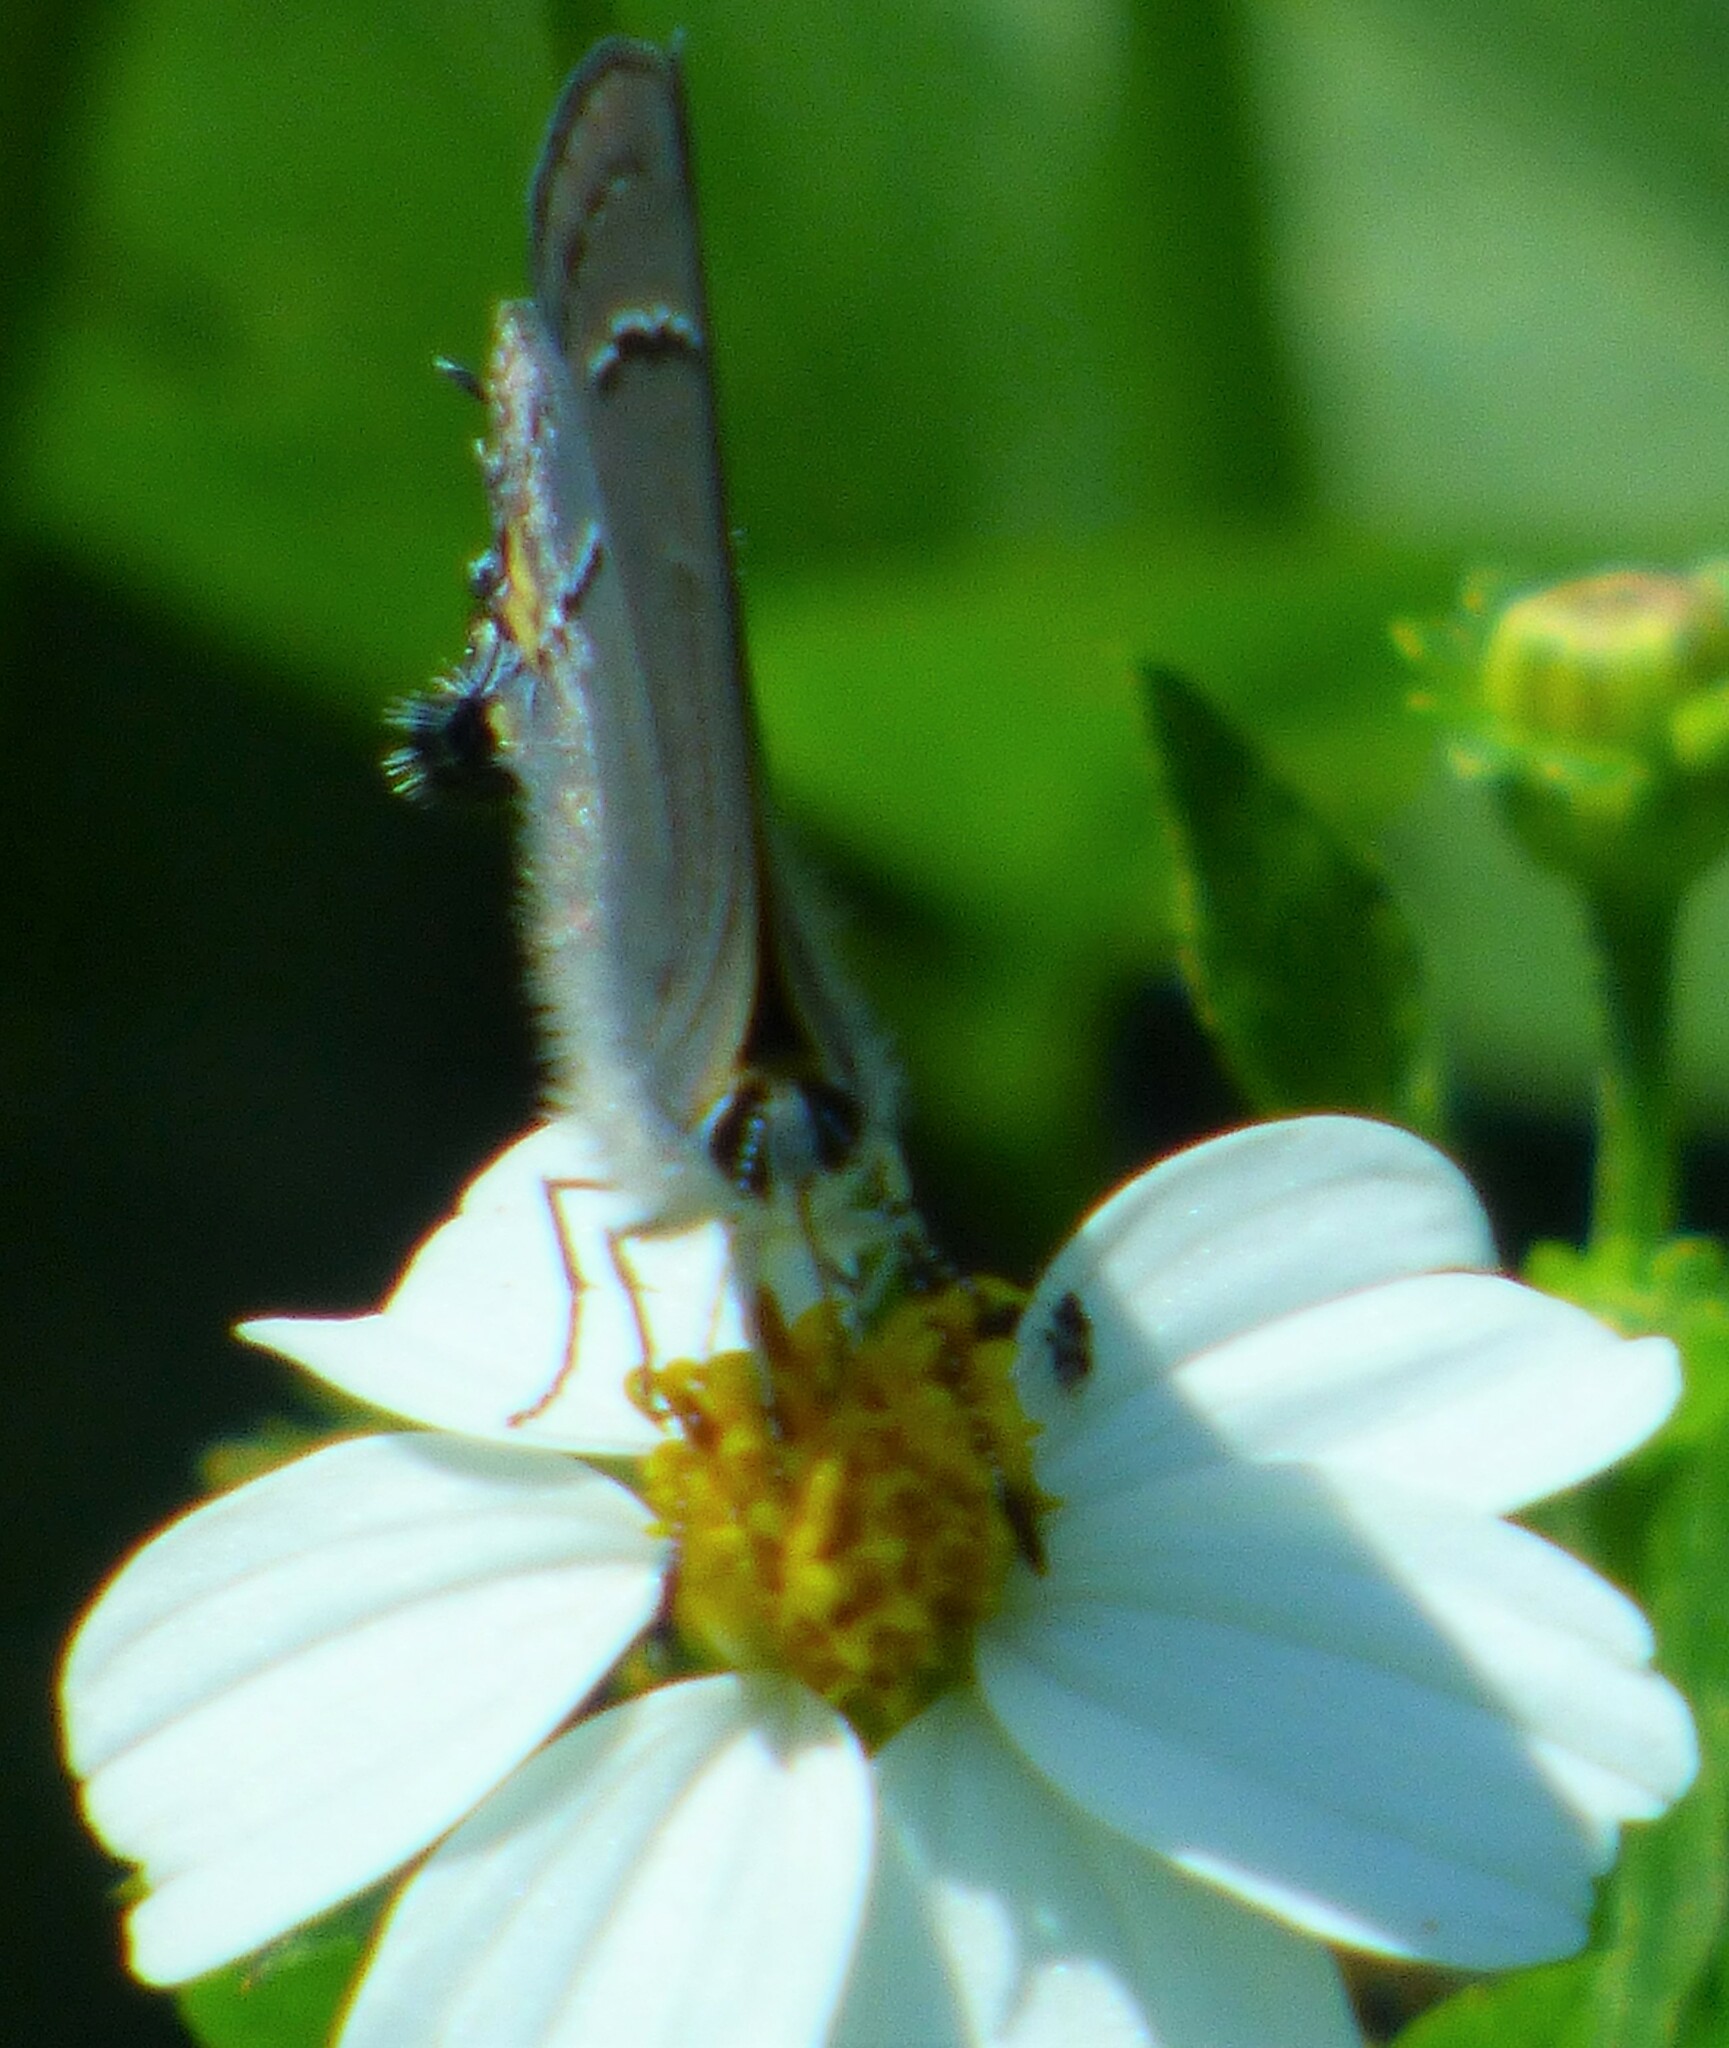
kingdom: Animalia
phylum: Arthropoda
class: Insecta
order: Lepidoptera
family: Lycaenidae
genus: Strymon
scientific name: Strymon melinus
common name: Gray hairstreak
